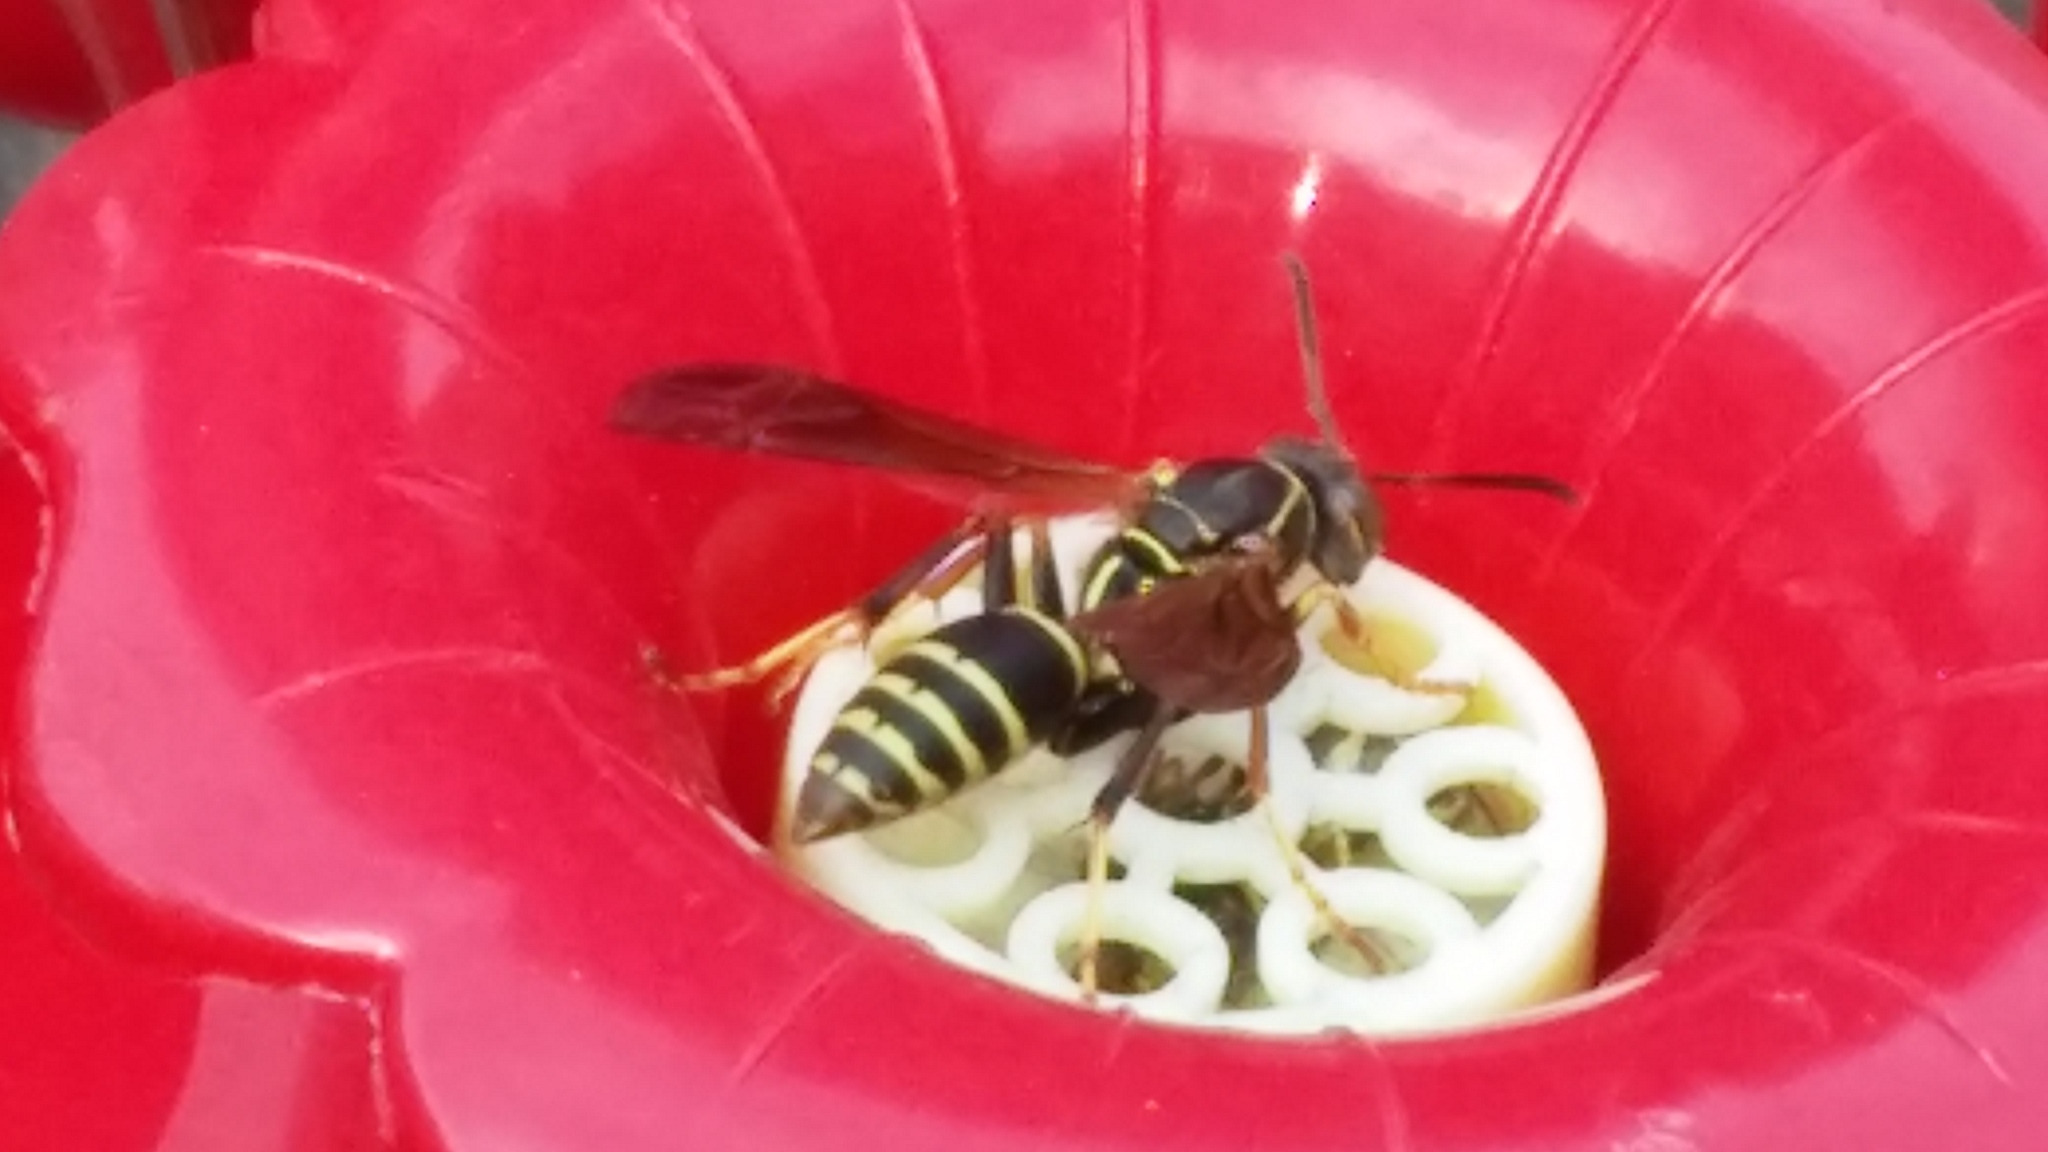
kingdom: Animalia
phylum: Arthropoda
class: Insecta
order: Hymenoptera
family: Eumenidae
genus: Polistes
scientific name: Polistes fuscatus
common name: Dark paper wasp
